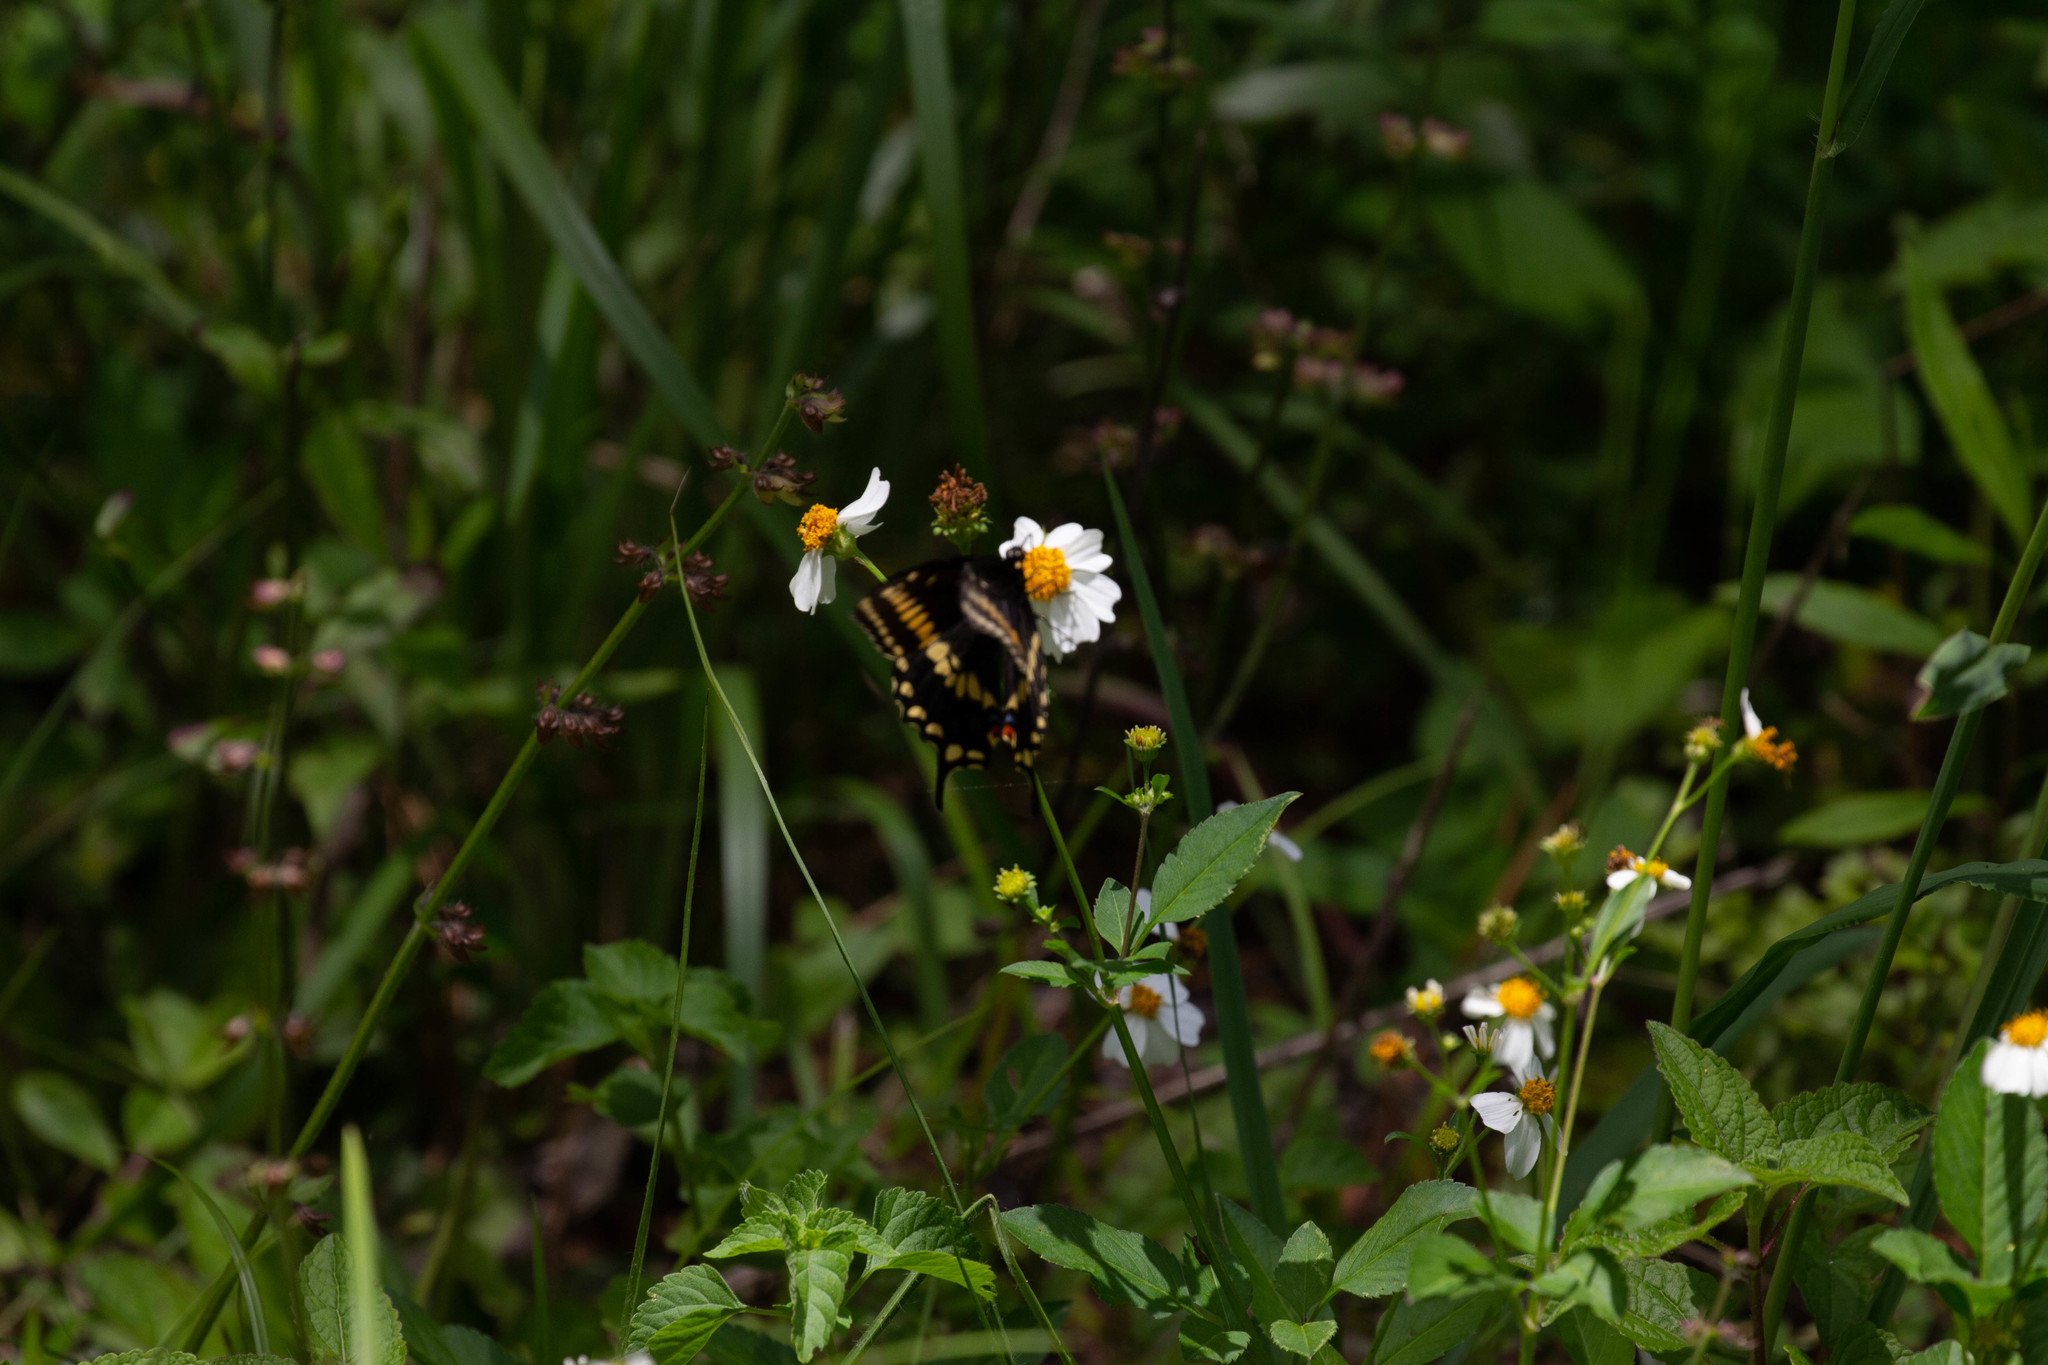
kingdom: Animalia
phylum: Arthropoda
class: Insecta
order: Lepidoptera
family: Papilionidae
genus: Papilio
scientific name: Papilio polyxenes
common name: Black swallowtail
